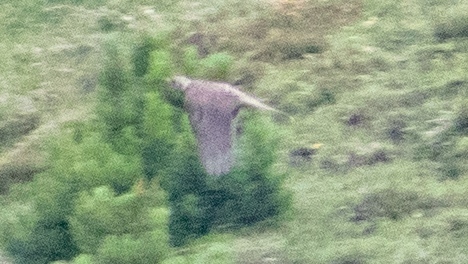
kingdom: Animalia
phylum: Chordata
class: Aves
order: Passeriformes
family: Turdidae
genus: Turdus
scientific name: Turdus pilaris
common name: Fieldfare
